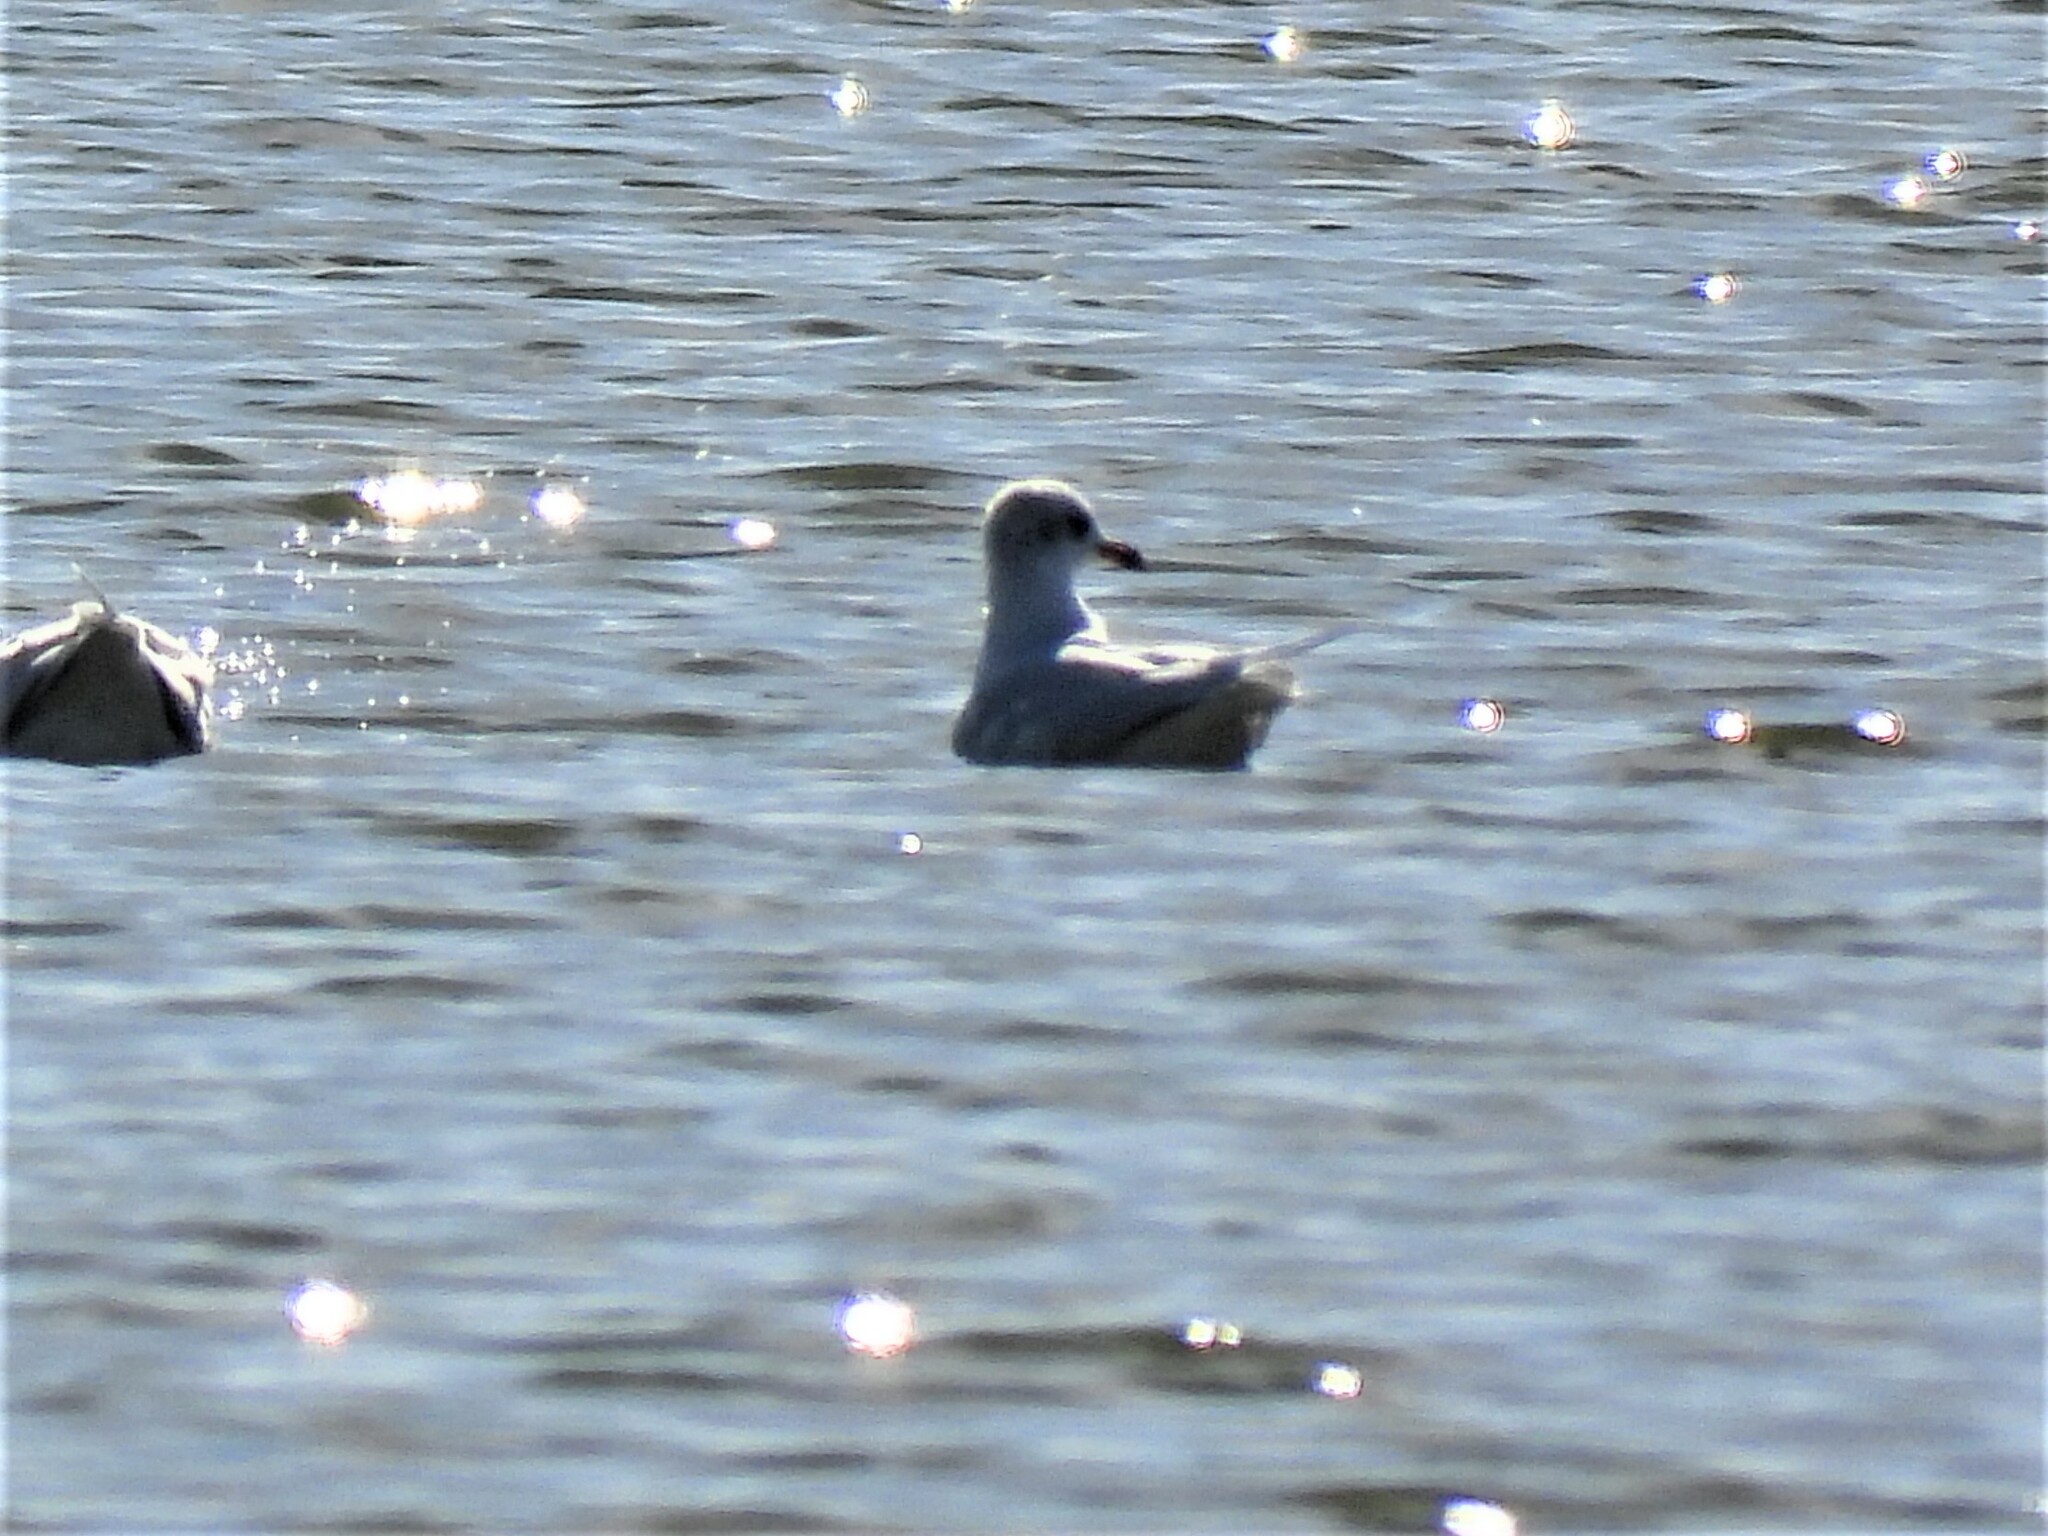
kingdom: Animalia
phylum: Chordata
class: Aves
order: Charadriiformes
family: Laridae
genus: Ichthyaetus
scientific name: Ichthyaetus melanocephalus
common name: Mediterranean gull
